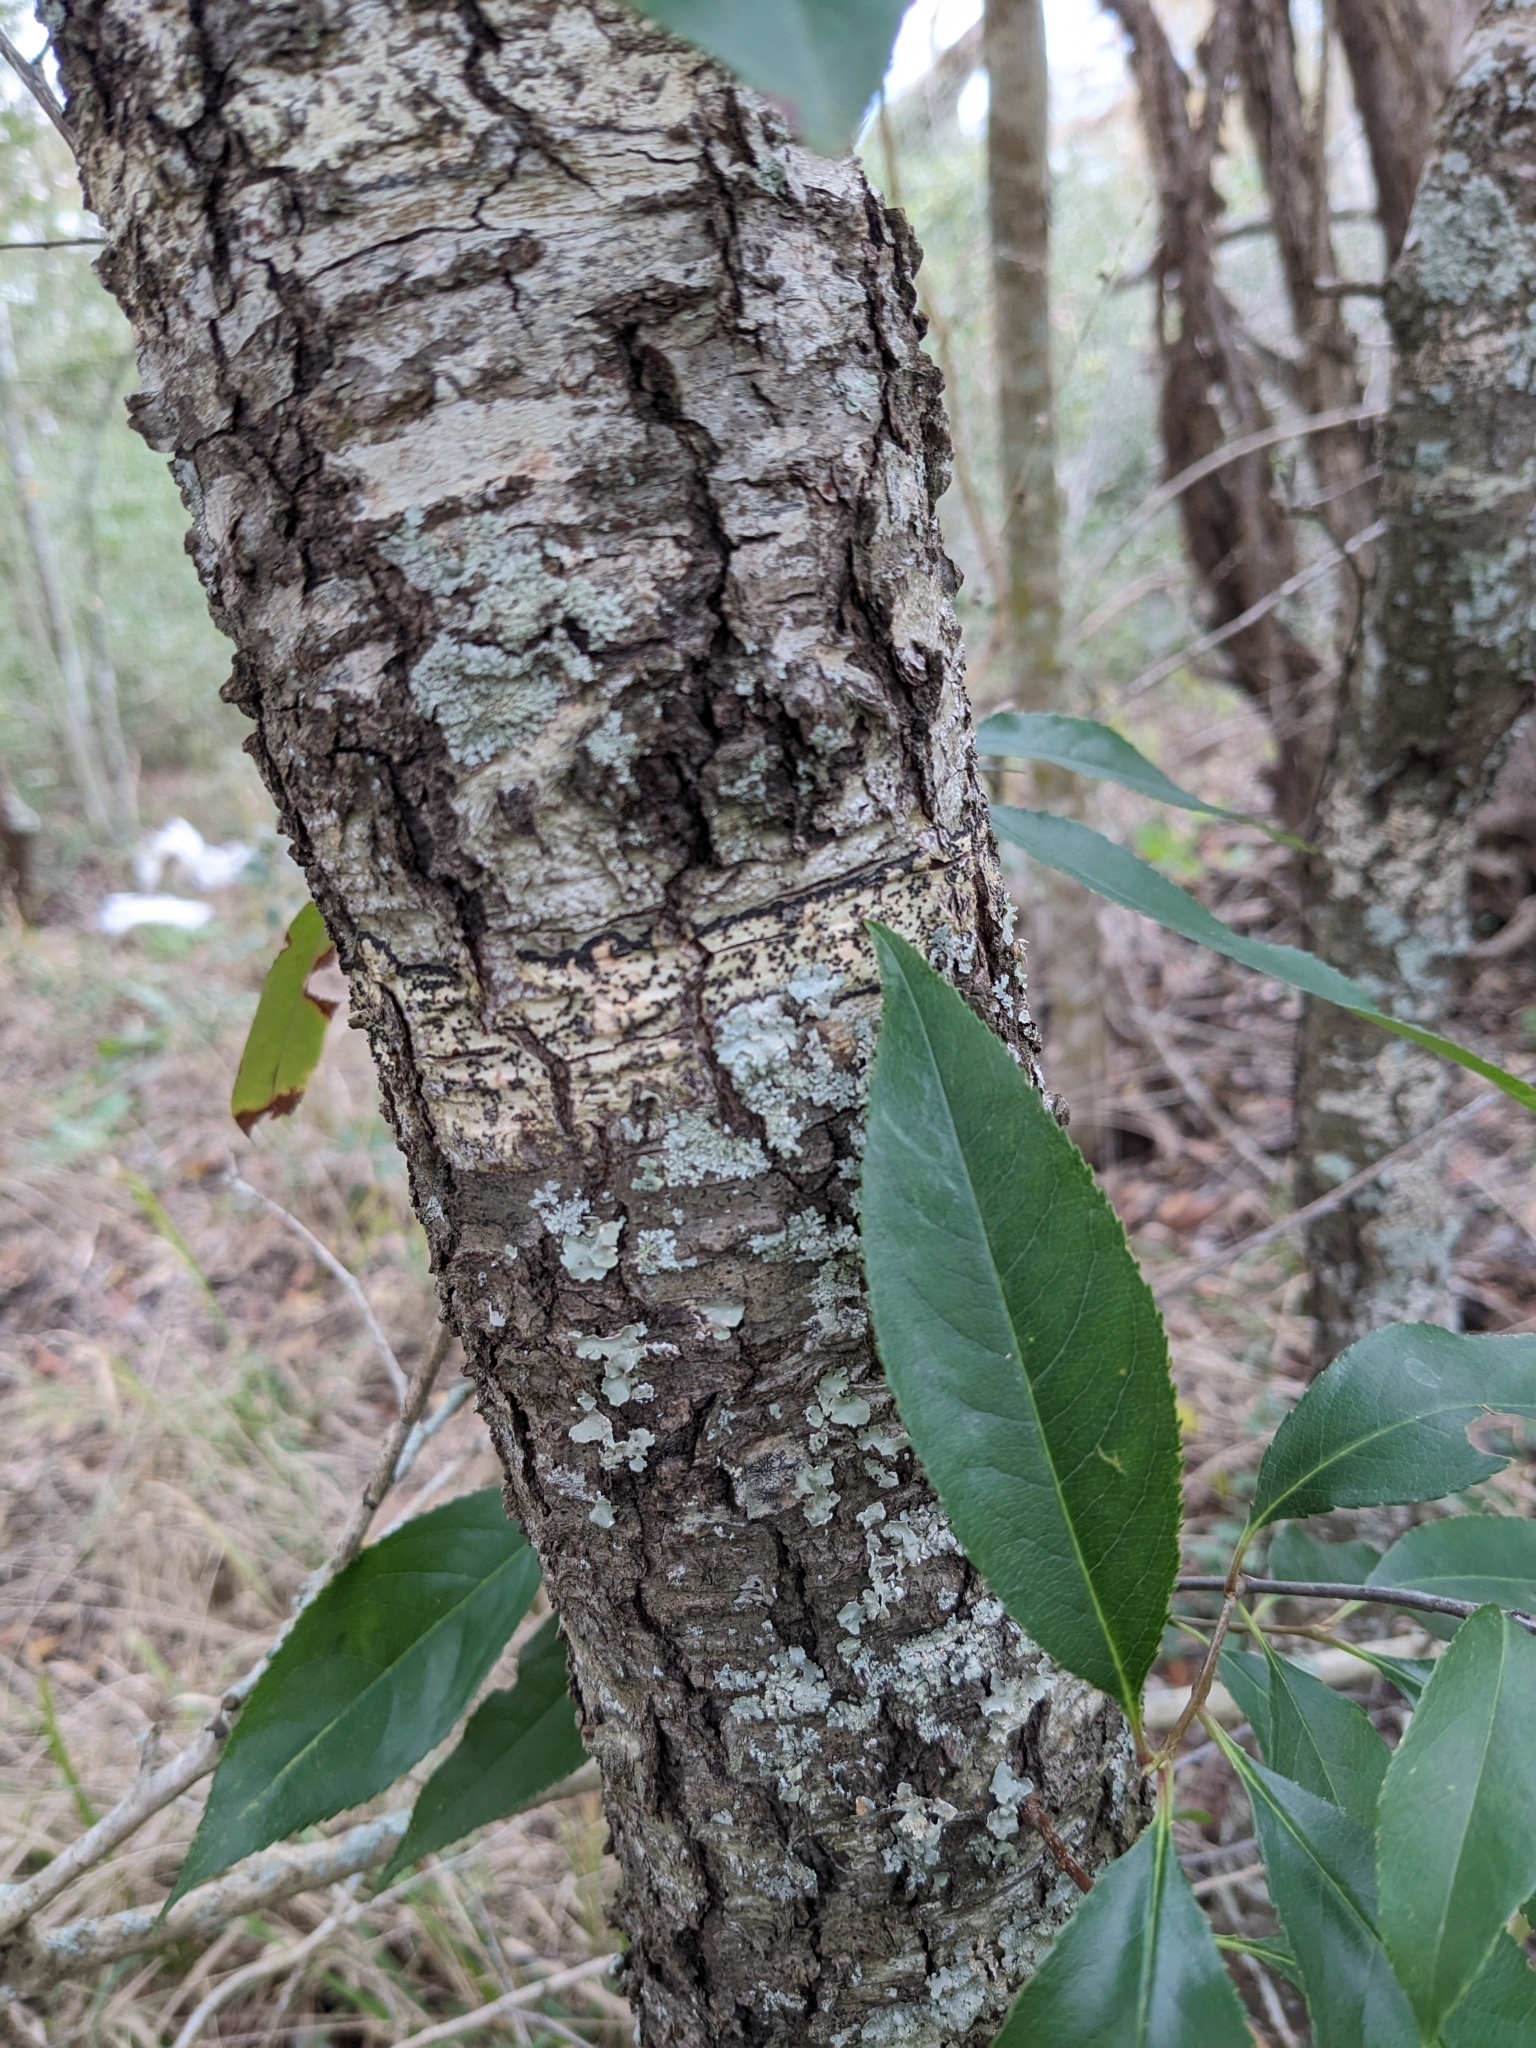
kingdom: Plantae
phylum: Tracheophyta
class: Magnoliopsida
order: Rosales
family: Rosaceae
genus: Prunus
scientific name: Prunus serotina
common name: Black cherry
